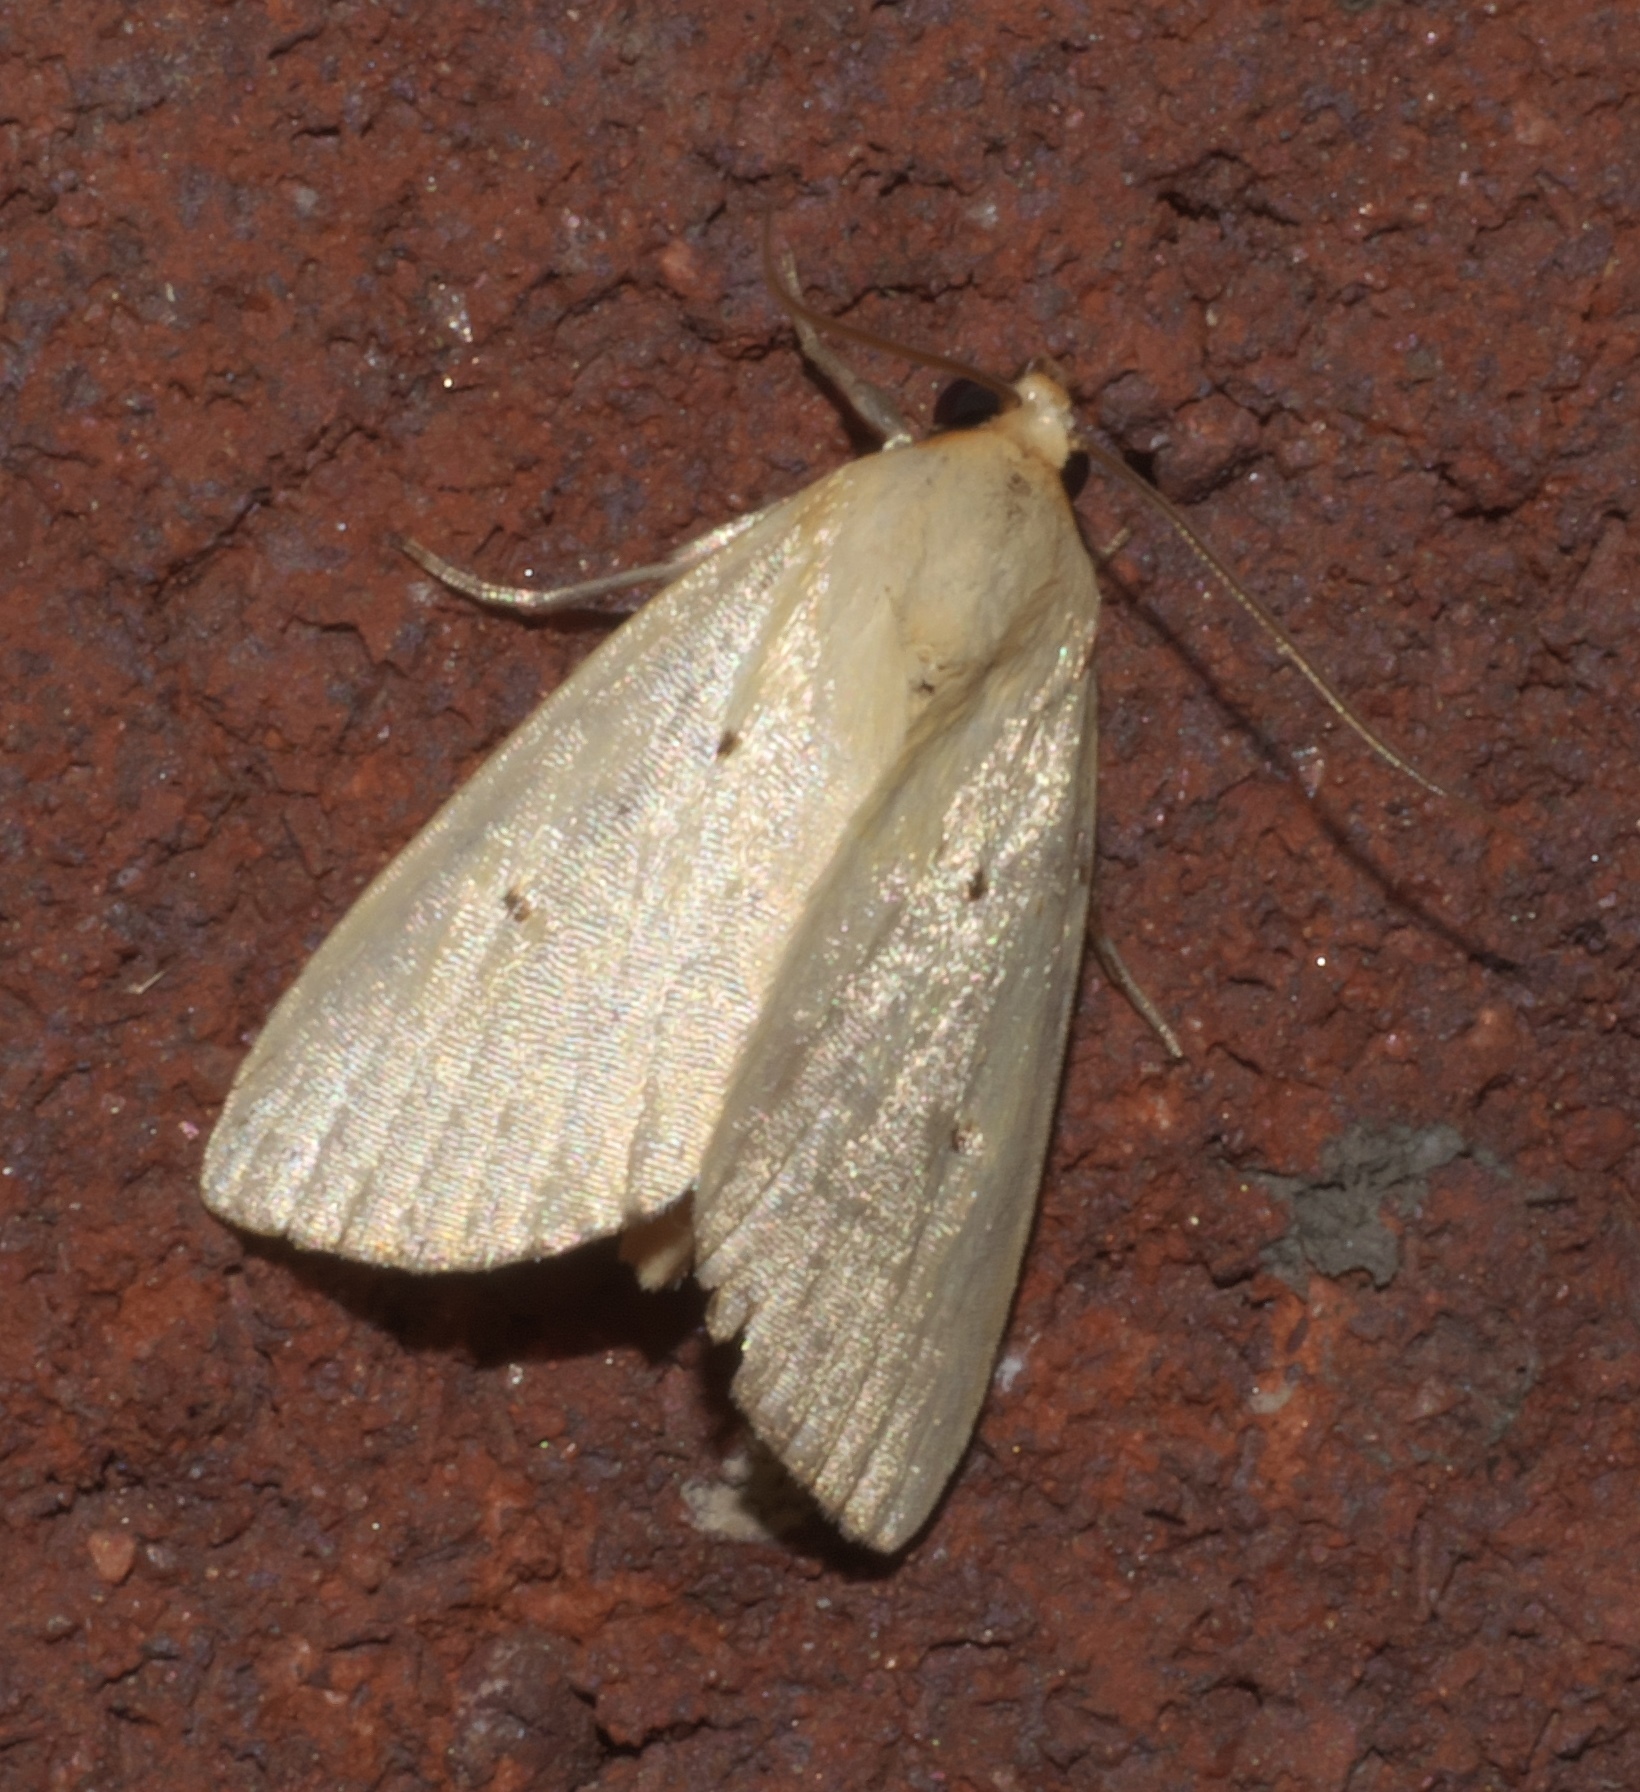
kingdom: Animalia
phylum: Arthropoda
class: Insecta
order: Lepidoptera
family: Noctuidae
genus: Marimatha
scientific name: Marimatha nigrofimbria
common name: Black-bordered lemon moth
